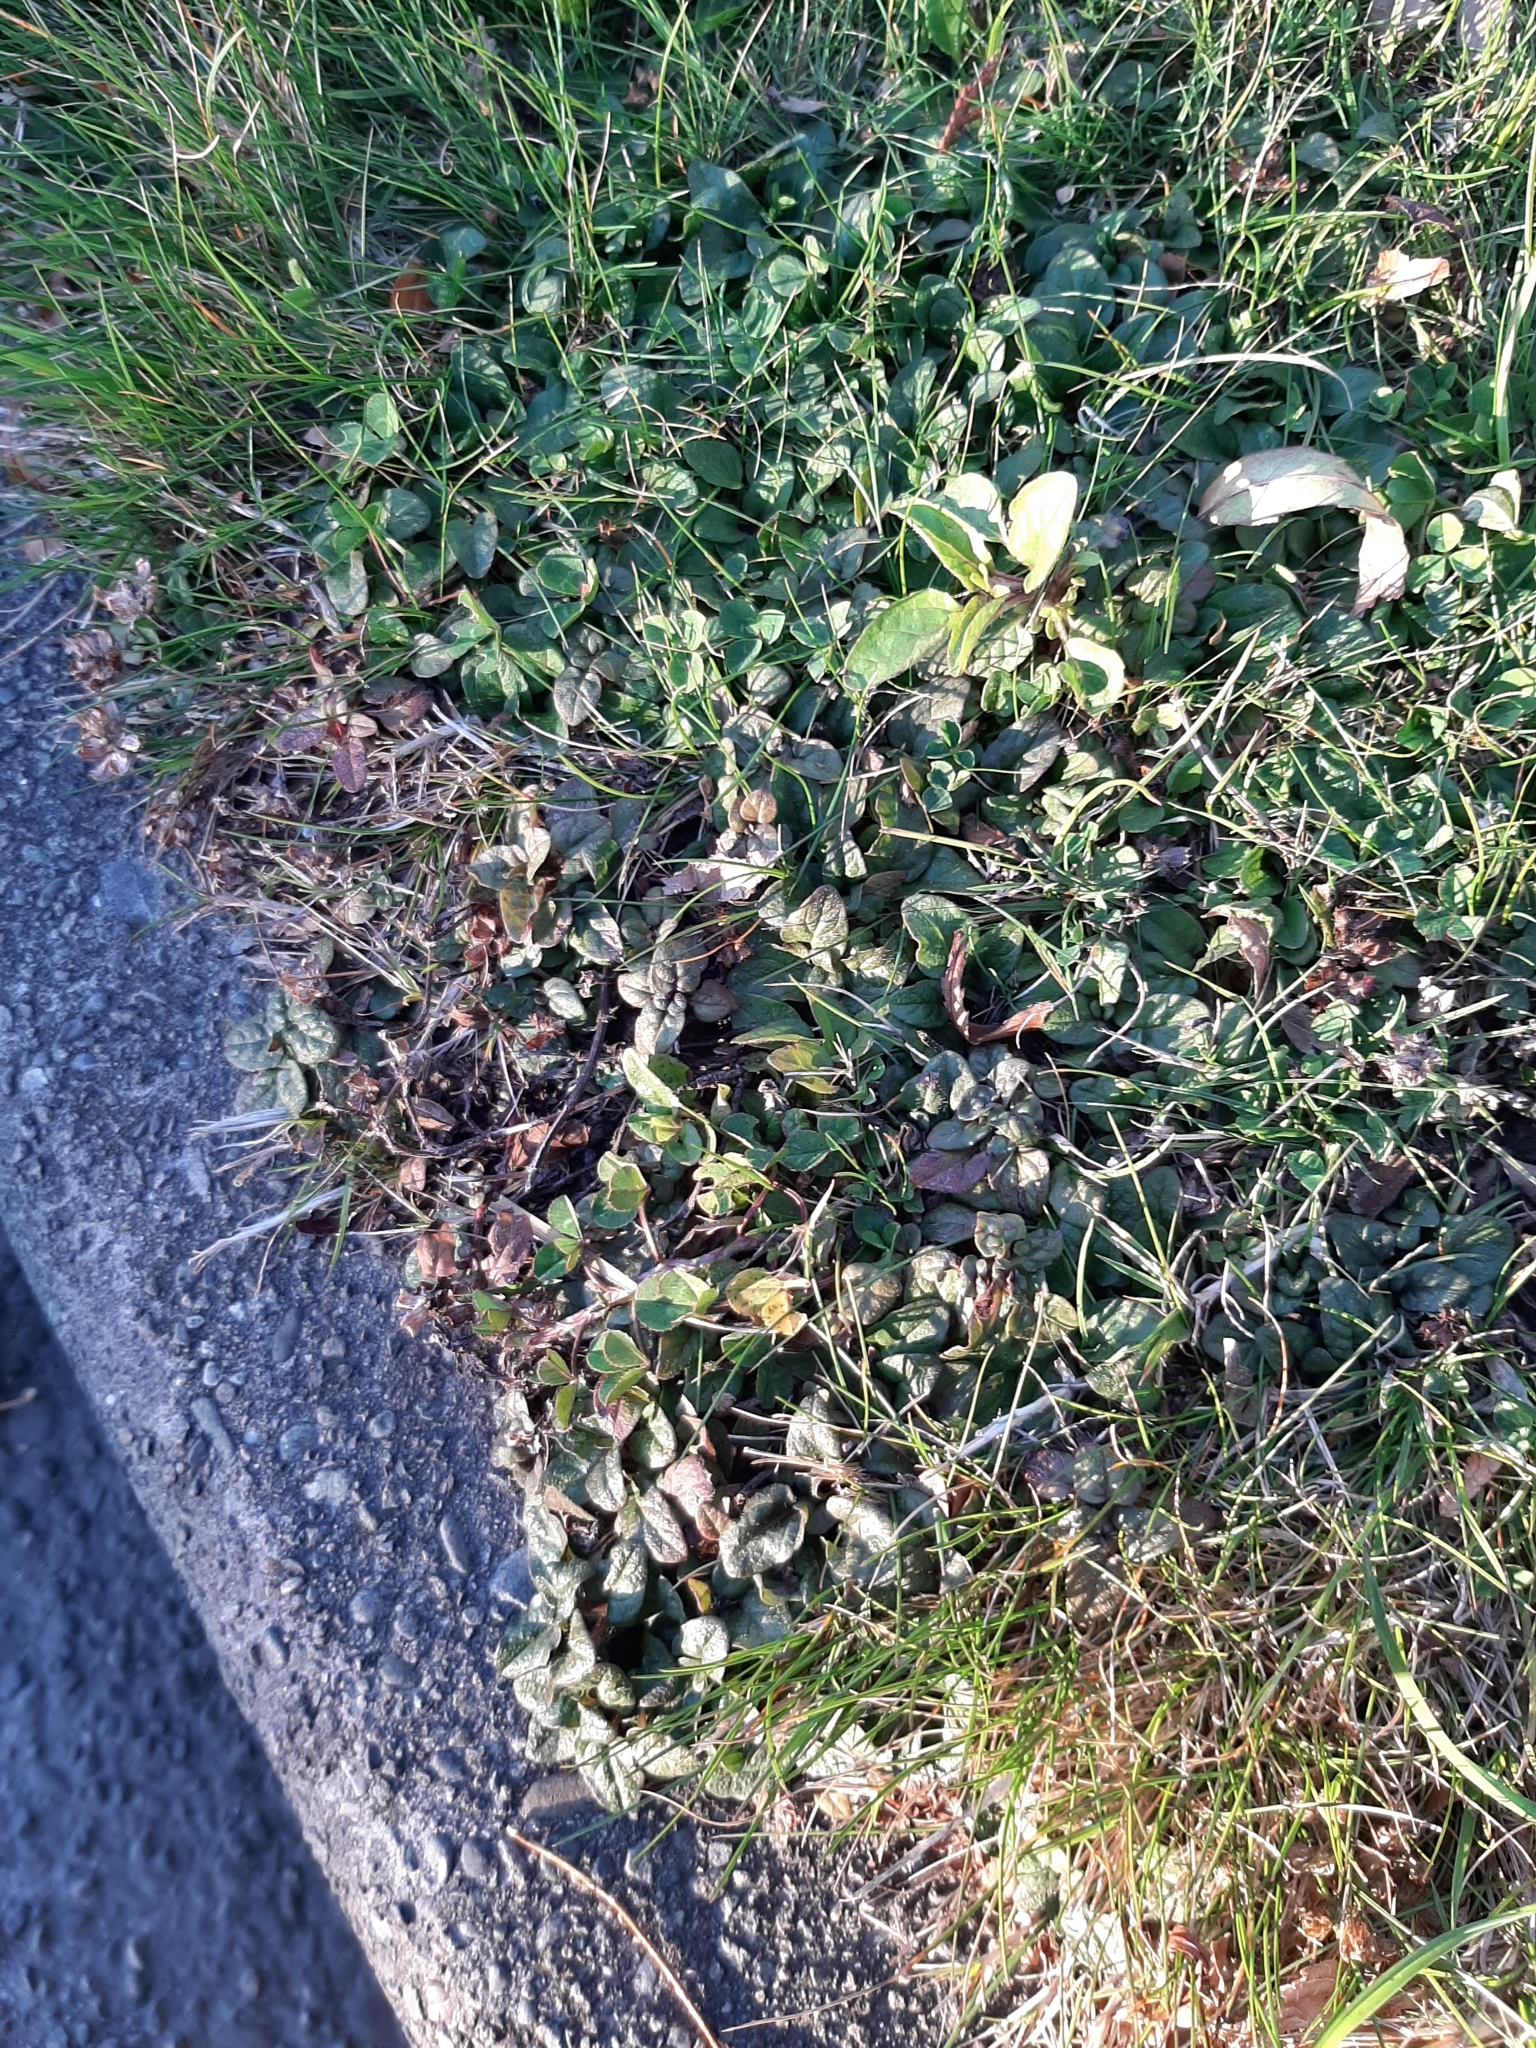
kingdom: Plantae
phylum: Tracheophyta
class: Magnoliopsida
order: Lamiales
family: Lamiaceae
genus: Prunella
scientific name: Prunella vulgaris
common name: Heal-all
